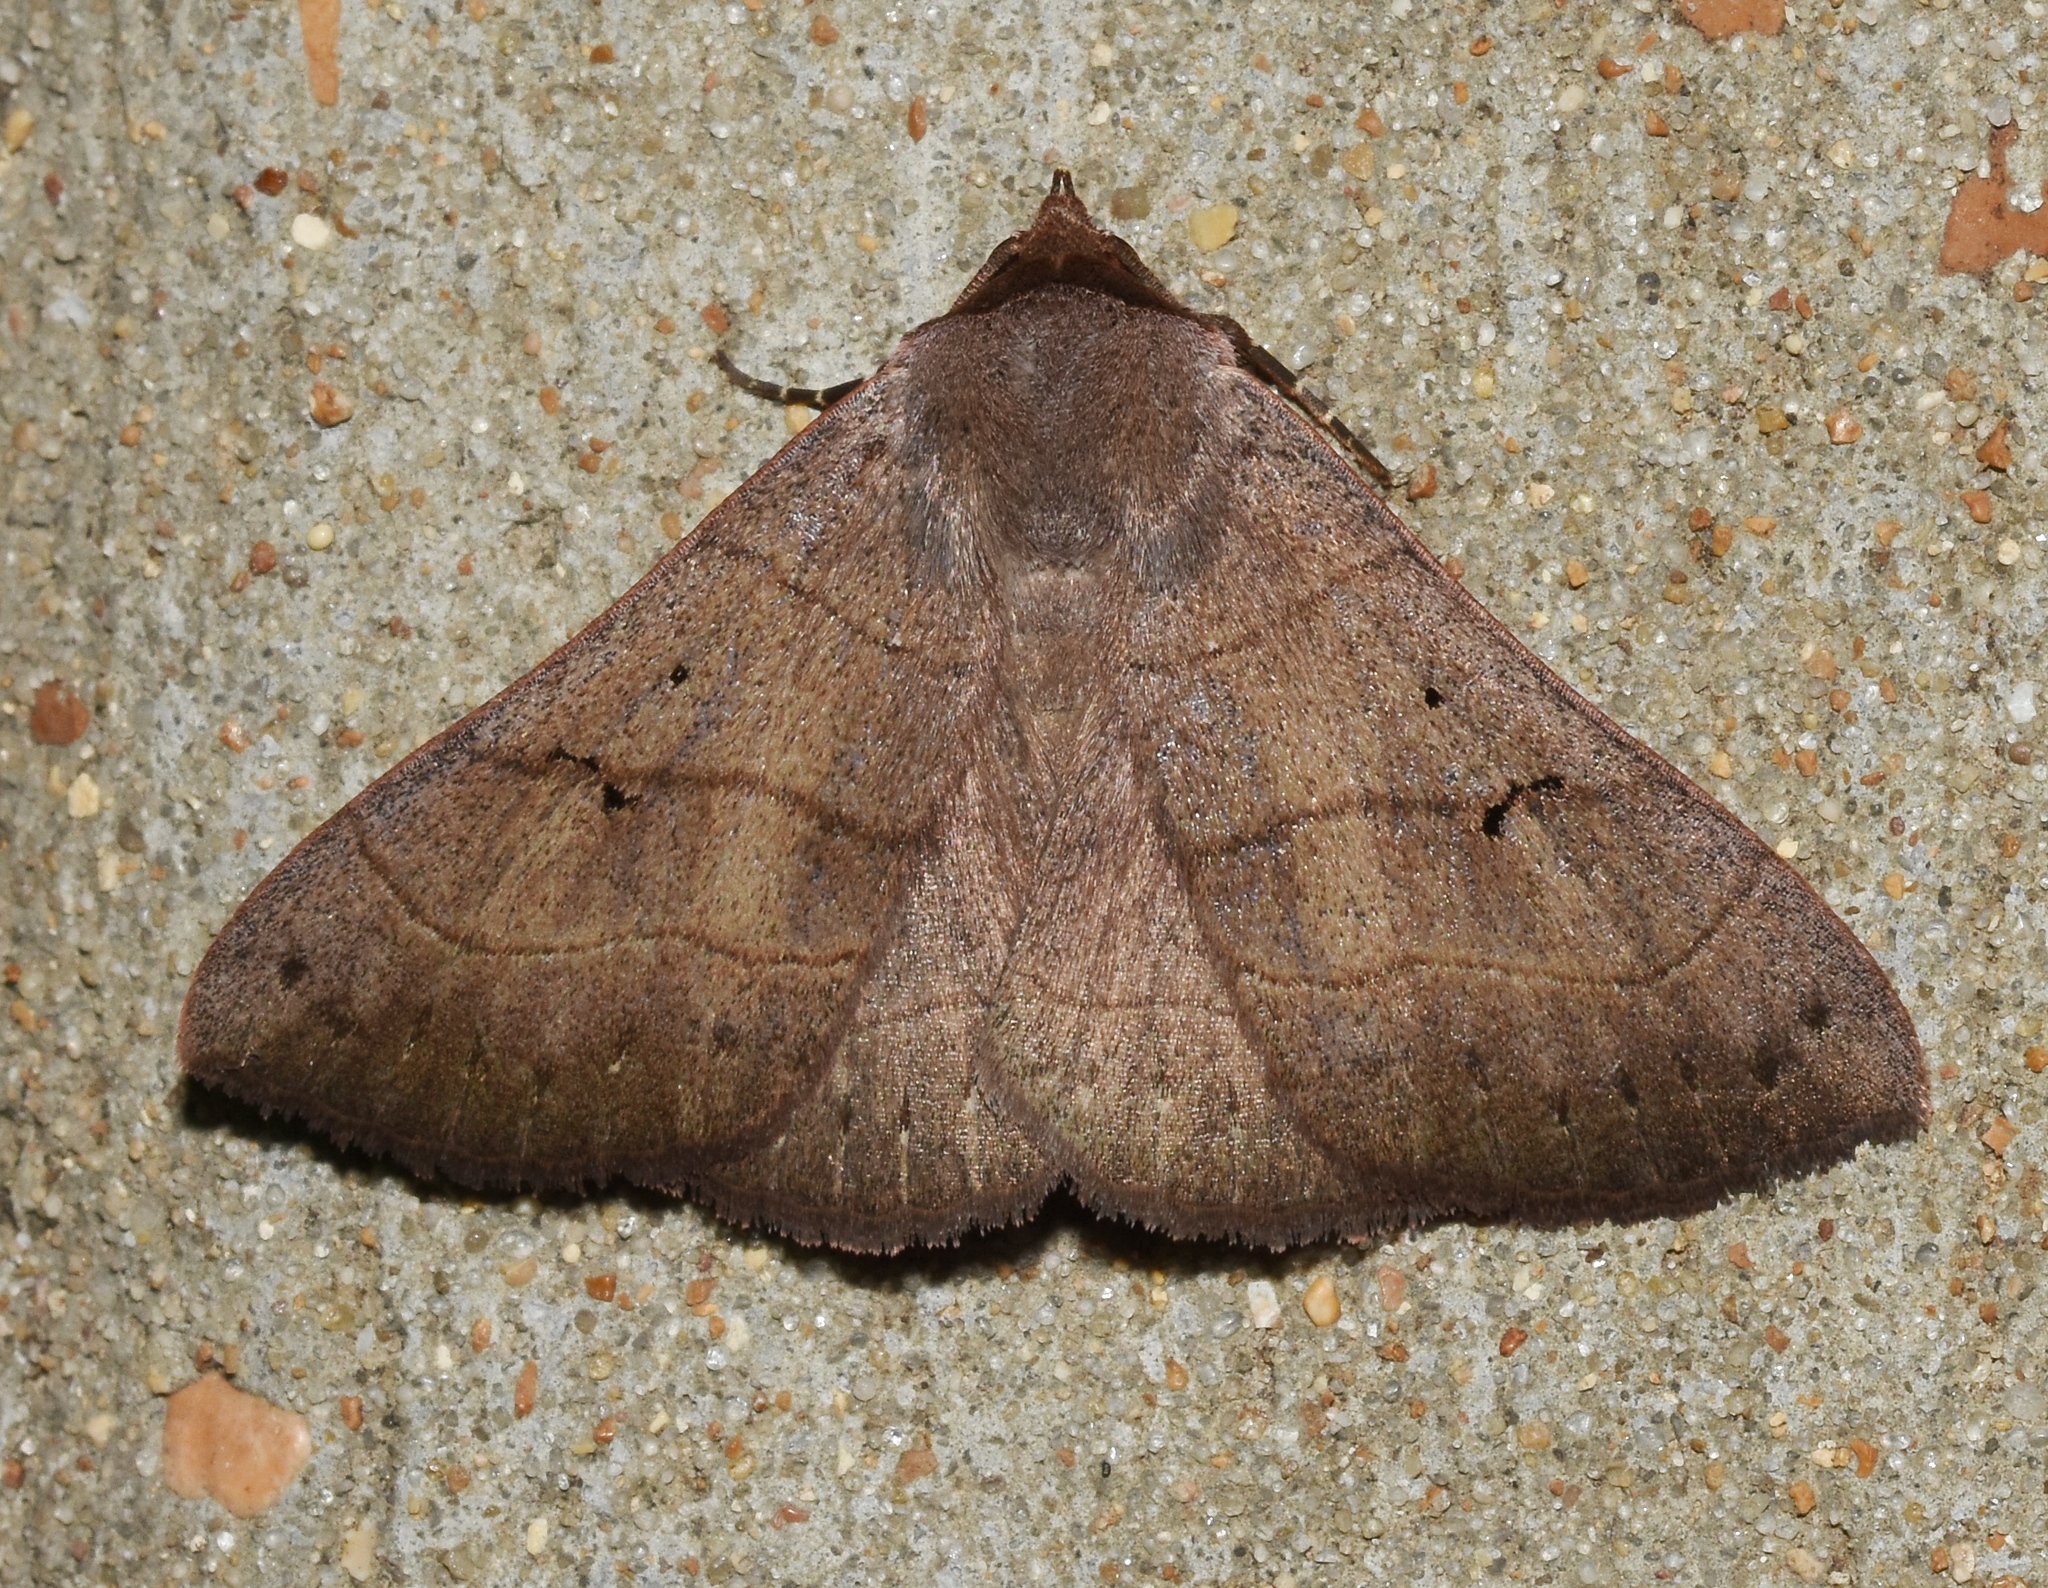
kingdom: Animalia
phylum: Arthropoda
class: Insecta
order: Lepidoptera
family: Erebidae
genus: Panopoda
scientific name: Panopoda carneicosta
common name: Brown panopoda moth
